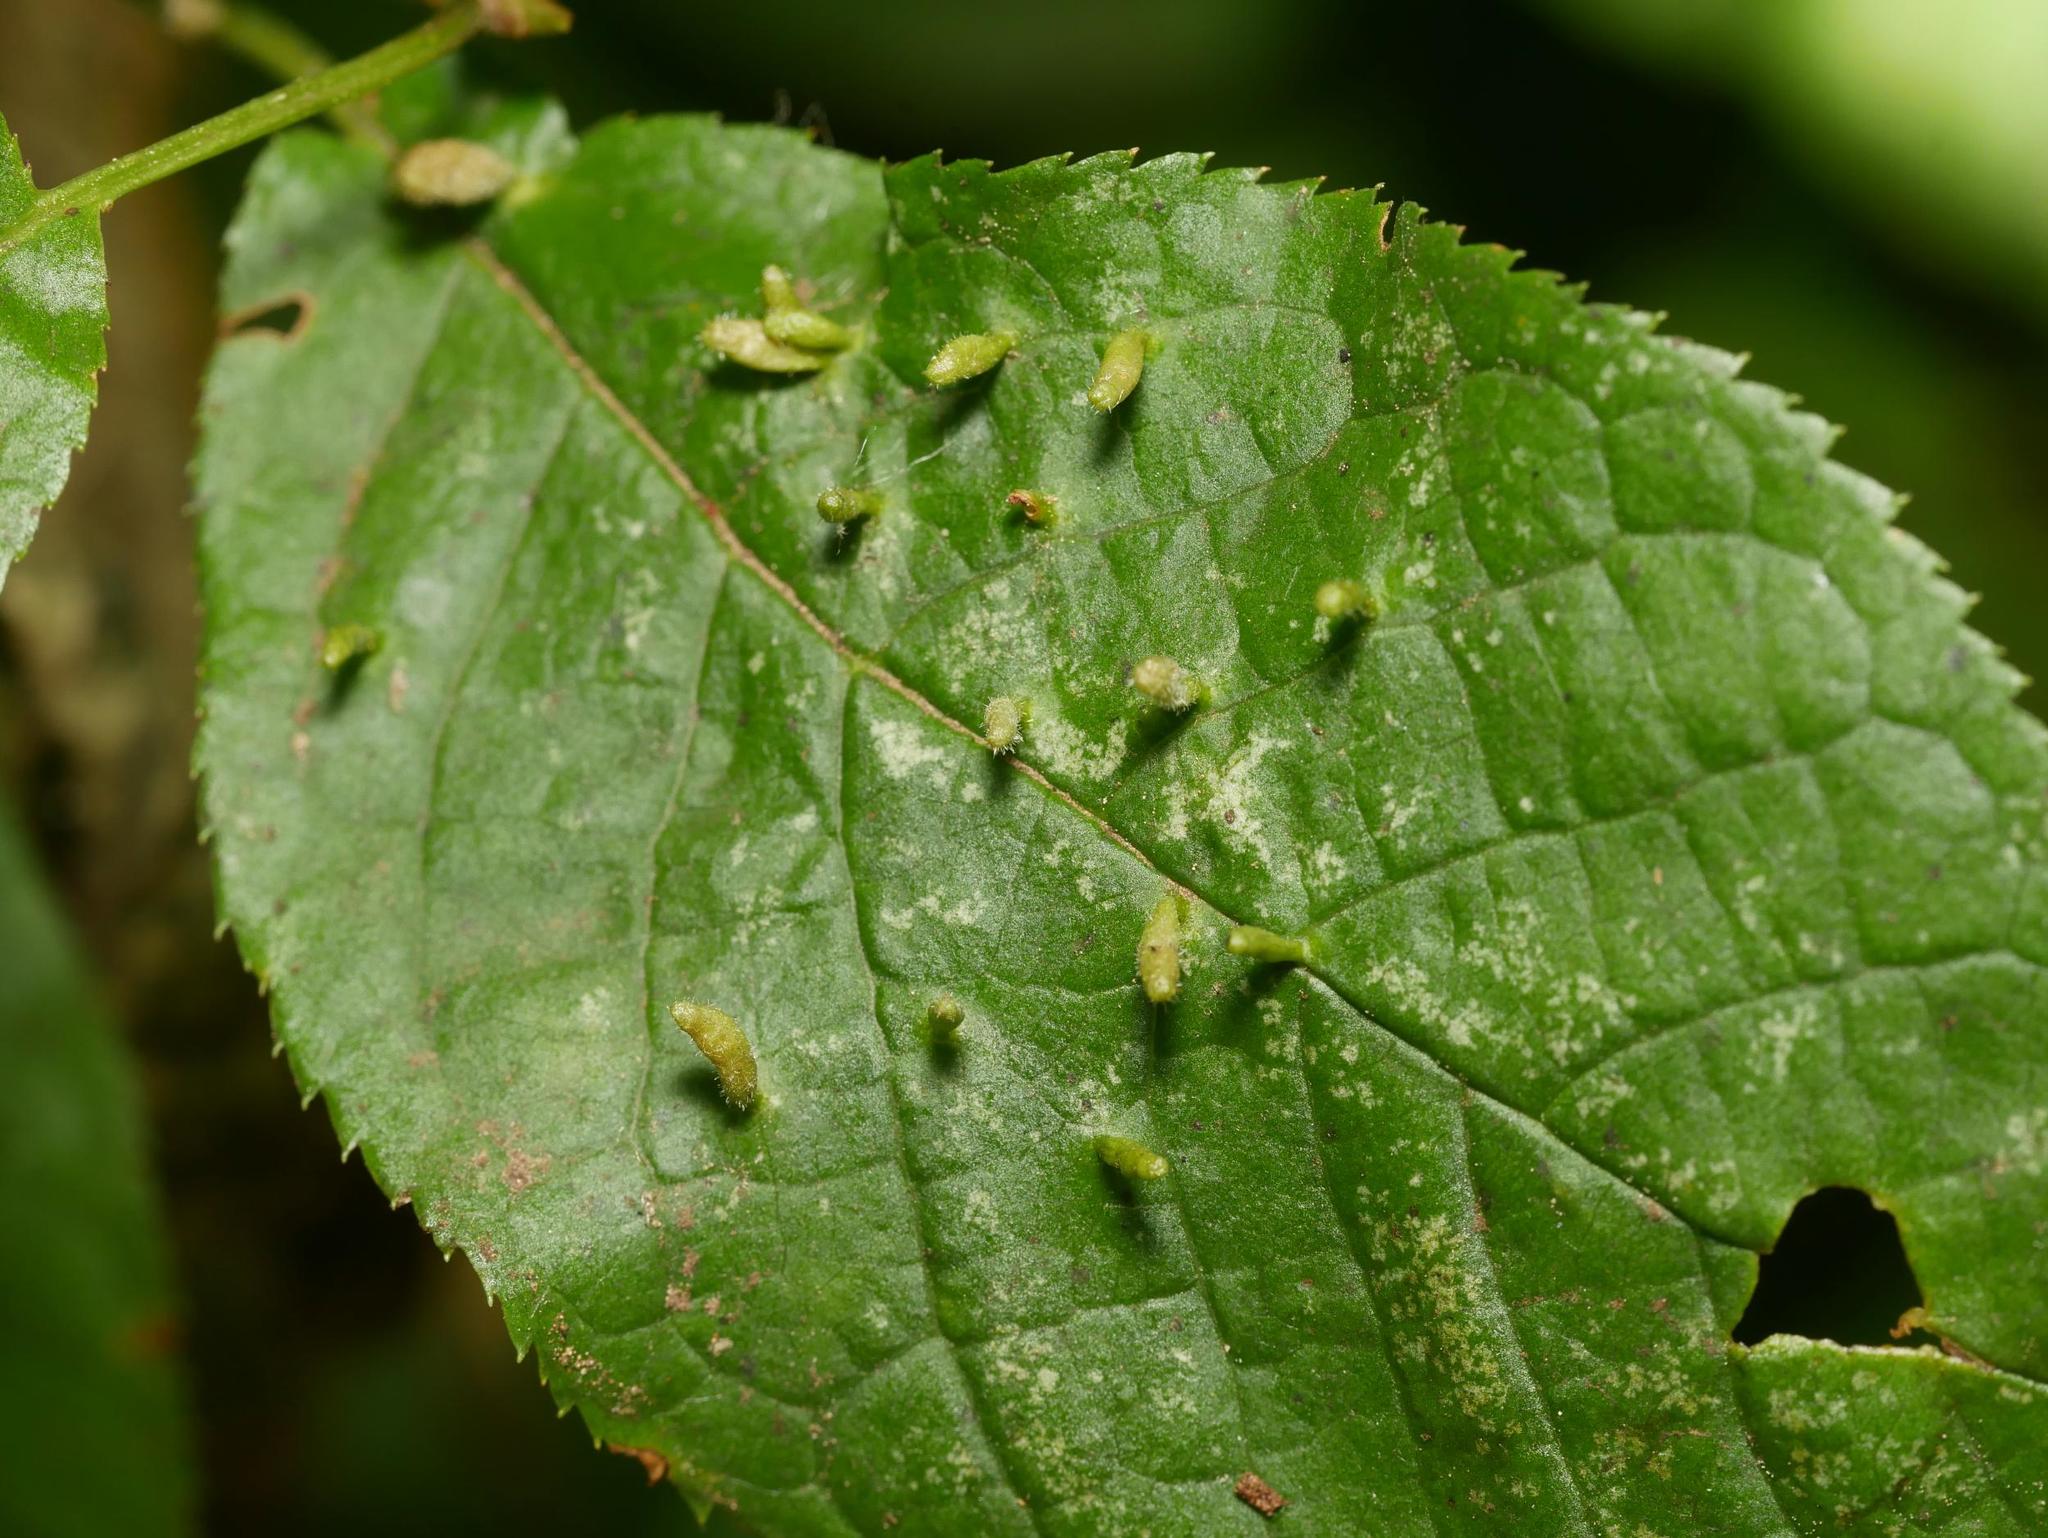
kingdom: Animalia
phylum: Arthropoda
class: Arachnida
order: Trombidiformes
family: Eriophyidae
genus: Phyllocoptes
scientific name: Phyllocoptes eupadi
